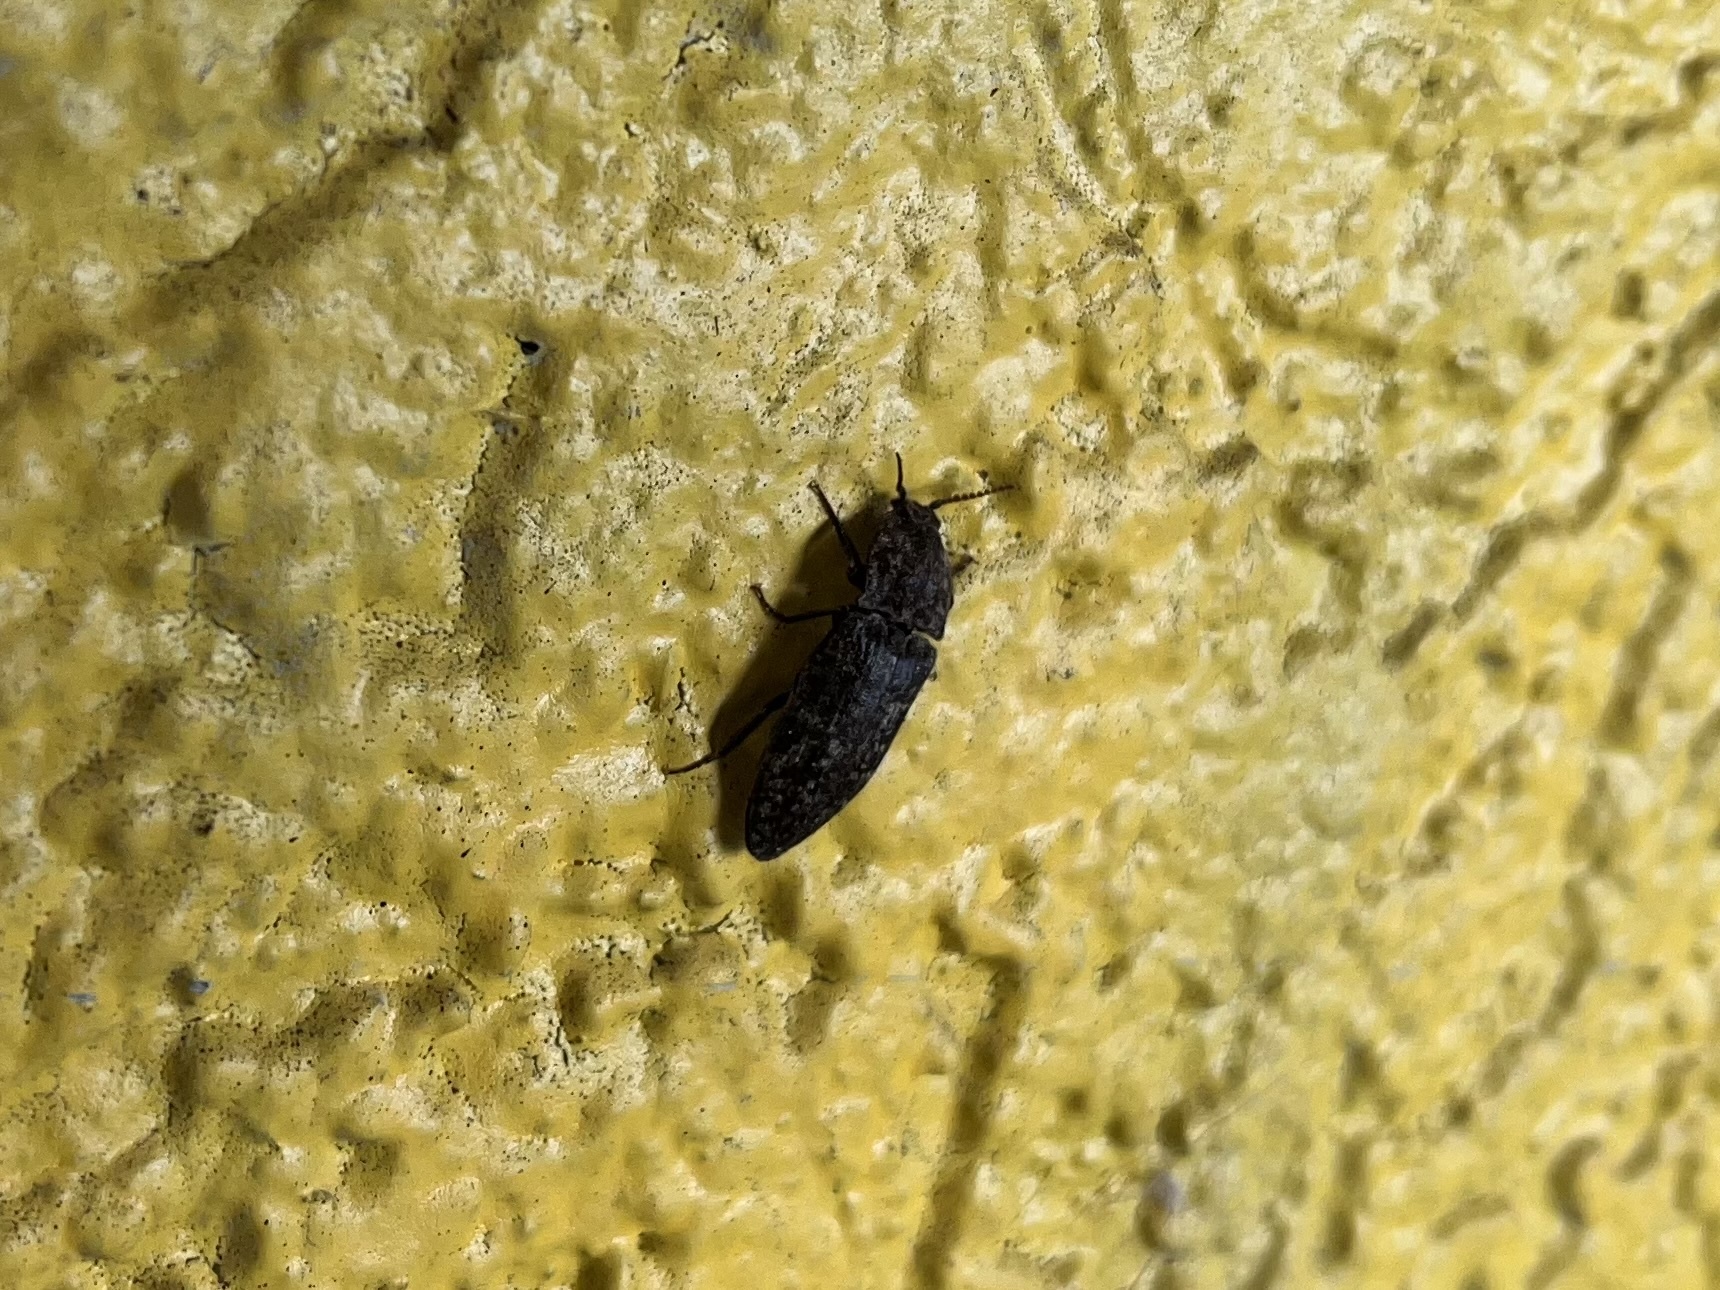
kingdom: Animalia
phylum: Arthropoda
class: Insecta
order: Coleoptera
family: Elateridae
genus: Agrypnus
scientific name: Agrypnus murinus
